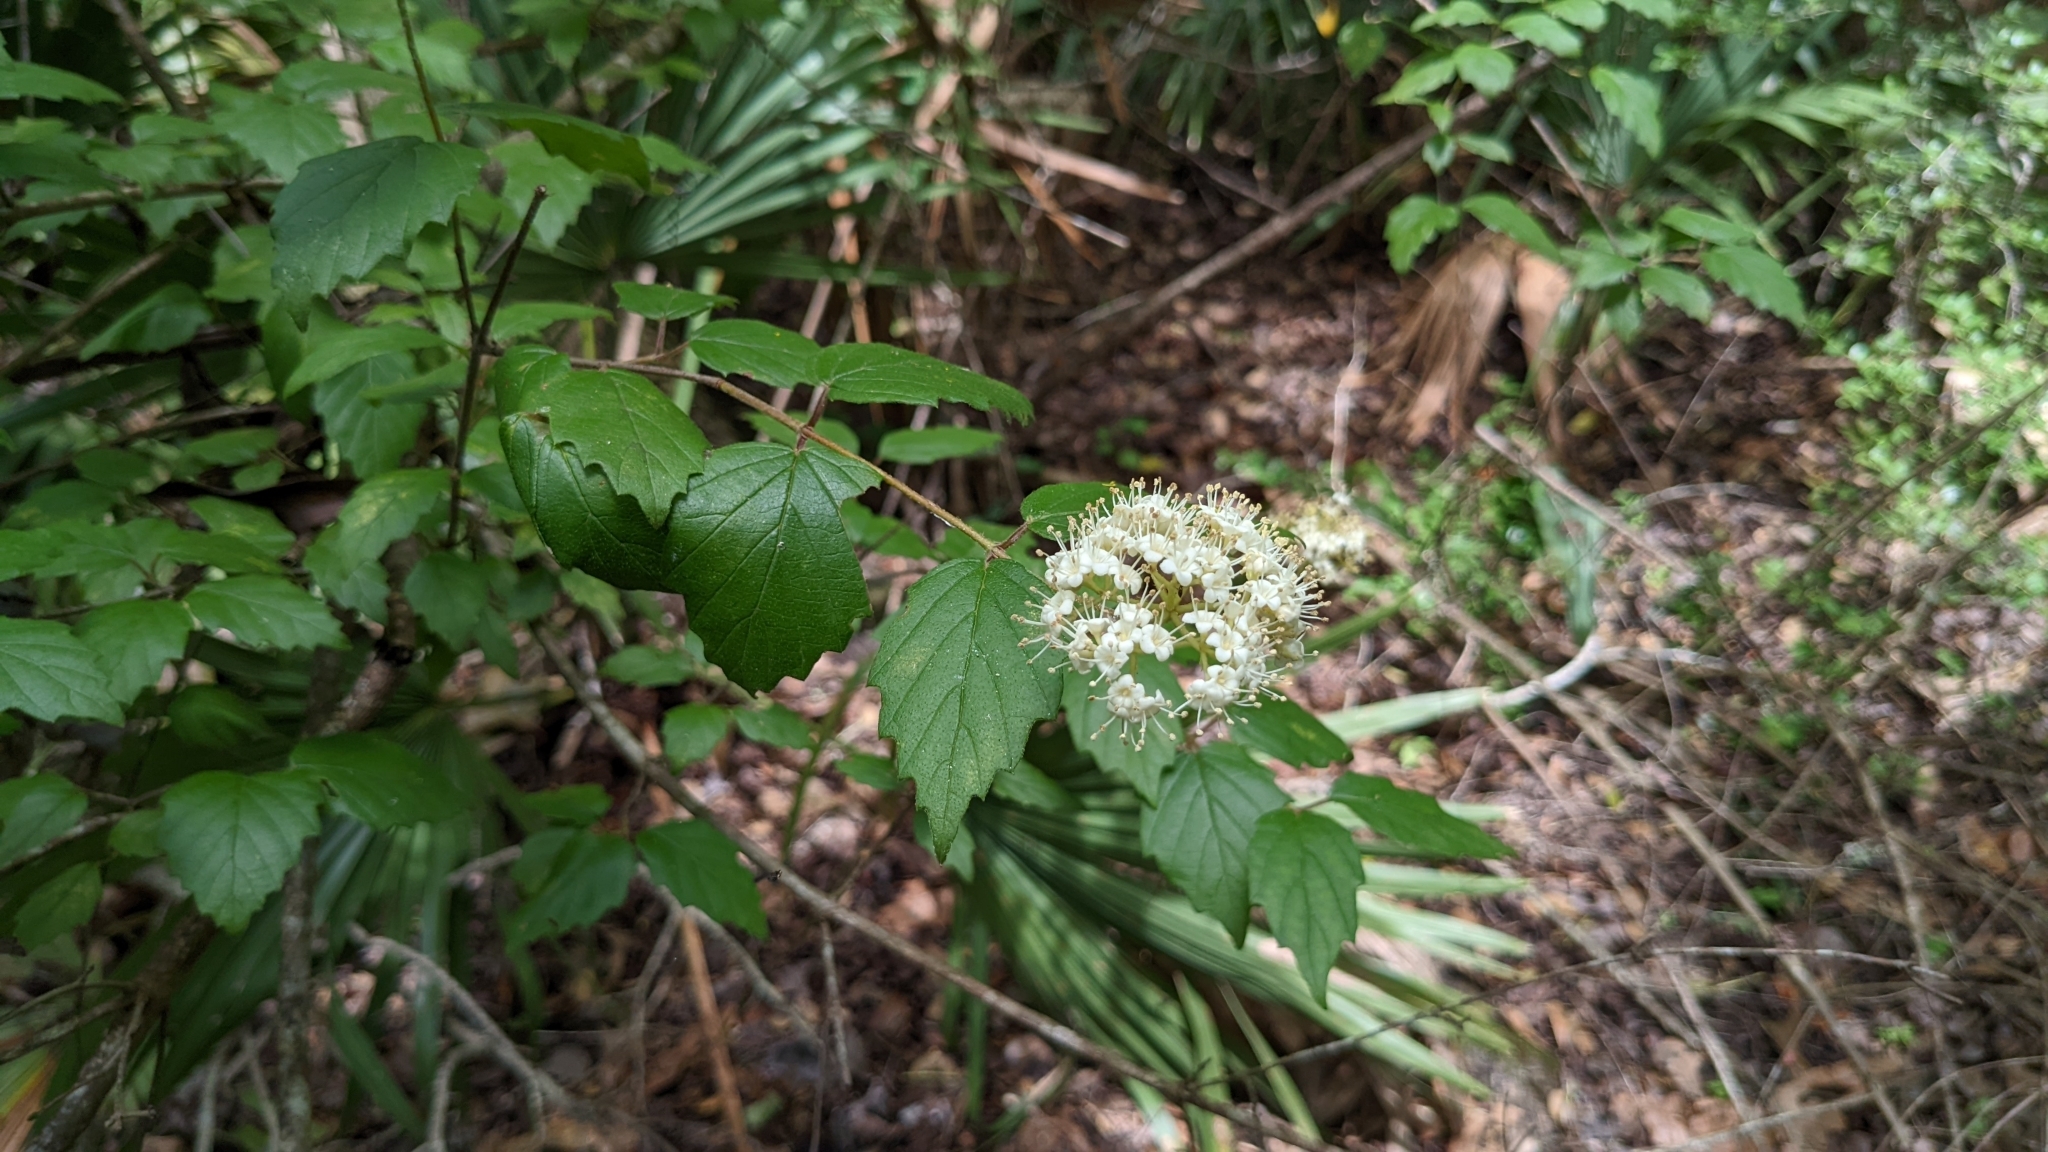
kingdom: Plantae
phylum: Tracheophyta
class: Magnoliopsida
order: Dipsacales
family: Viburnaceae
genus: Viburnum
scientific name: Viburnum scabrellum
